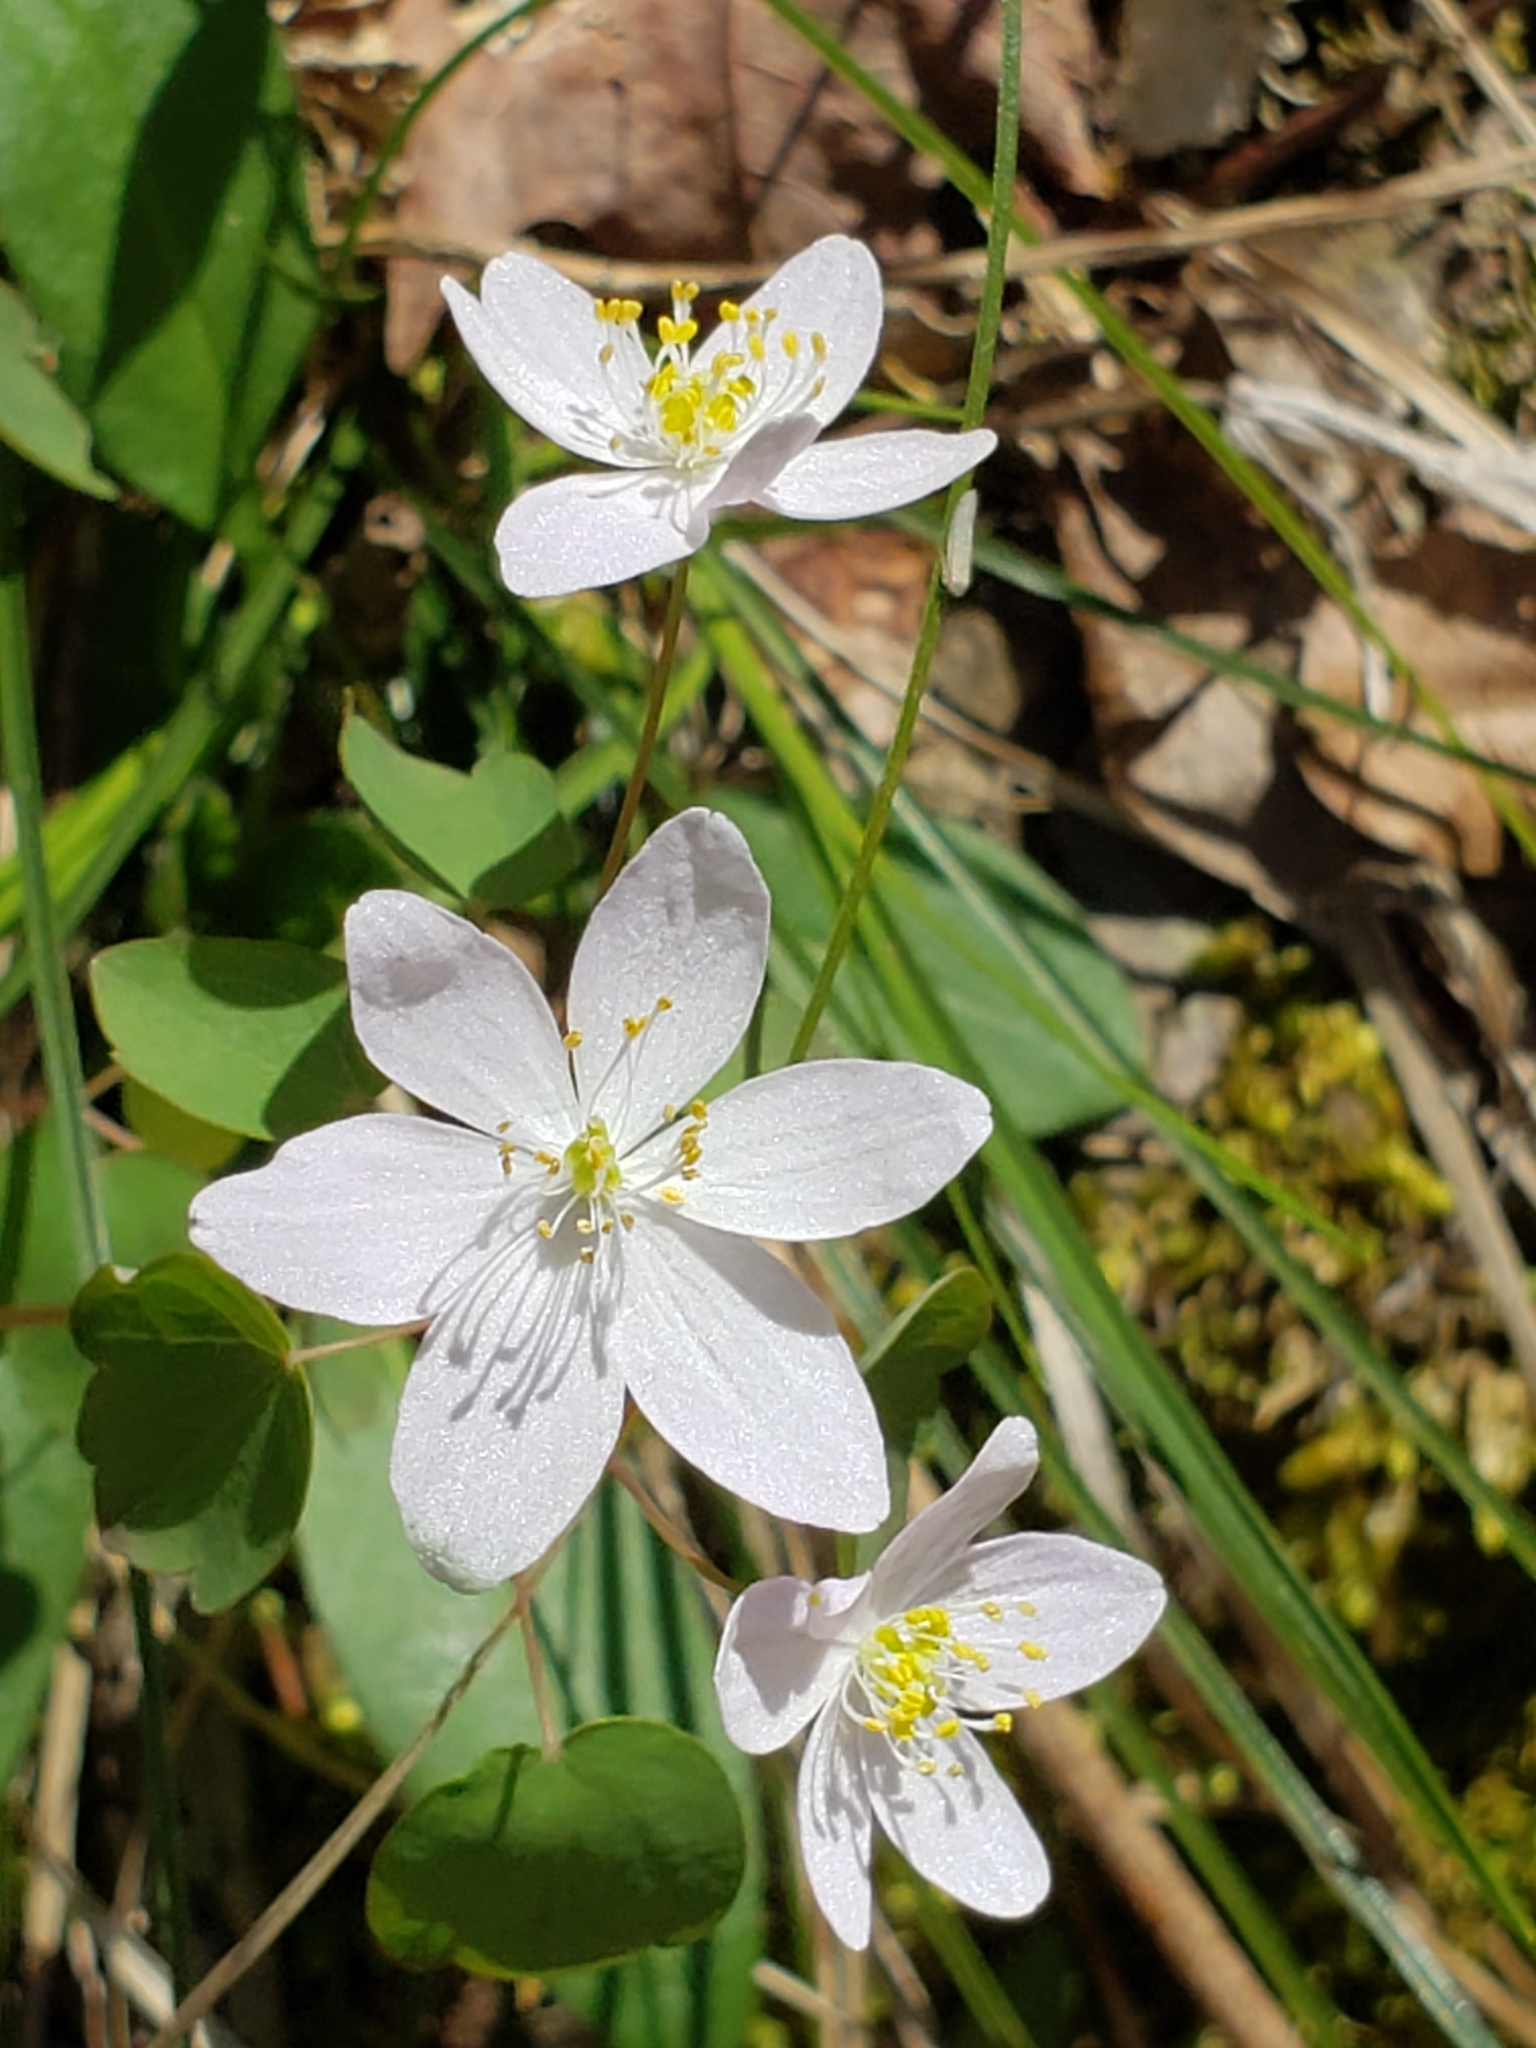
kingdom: Plantae
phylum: Tracheophyta
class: Magnoliopsida
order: Ranunculales
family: Ranunculaceae
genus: Thalictrum
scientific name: Thalictrum thalictroides
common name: Rue-anemone
